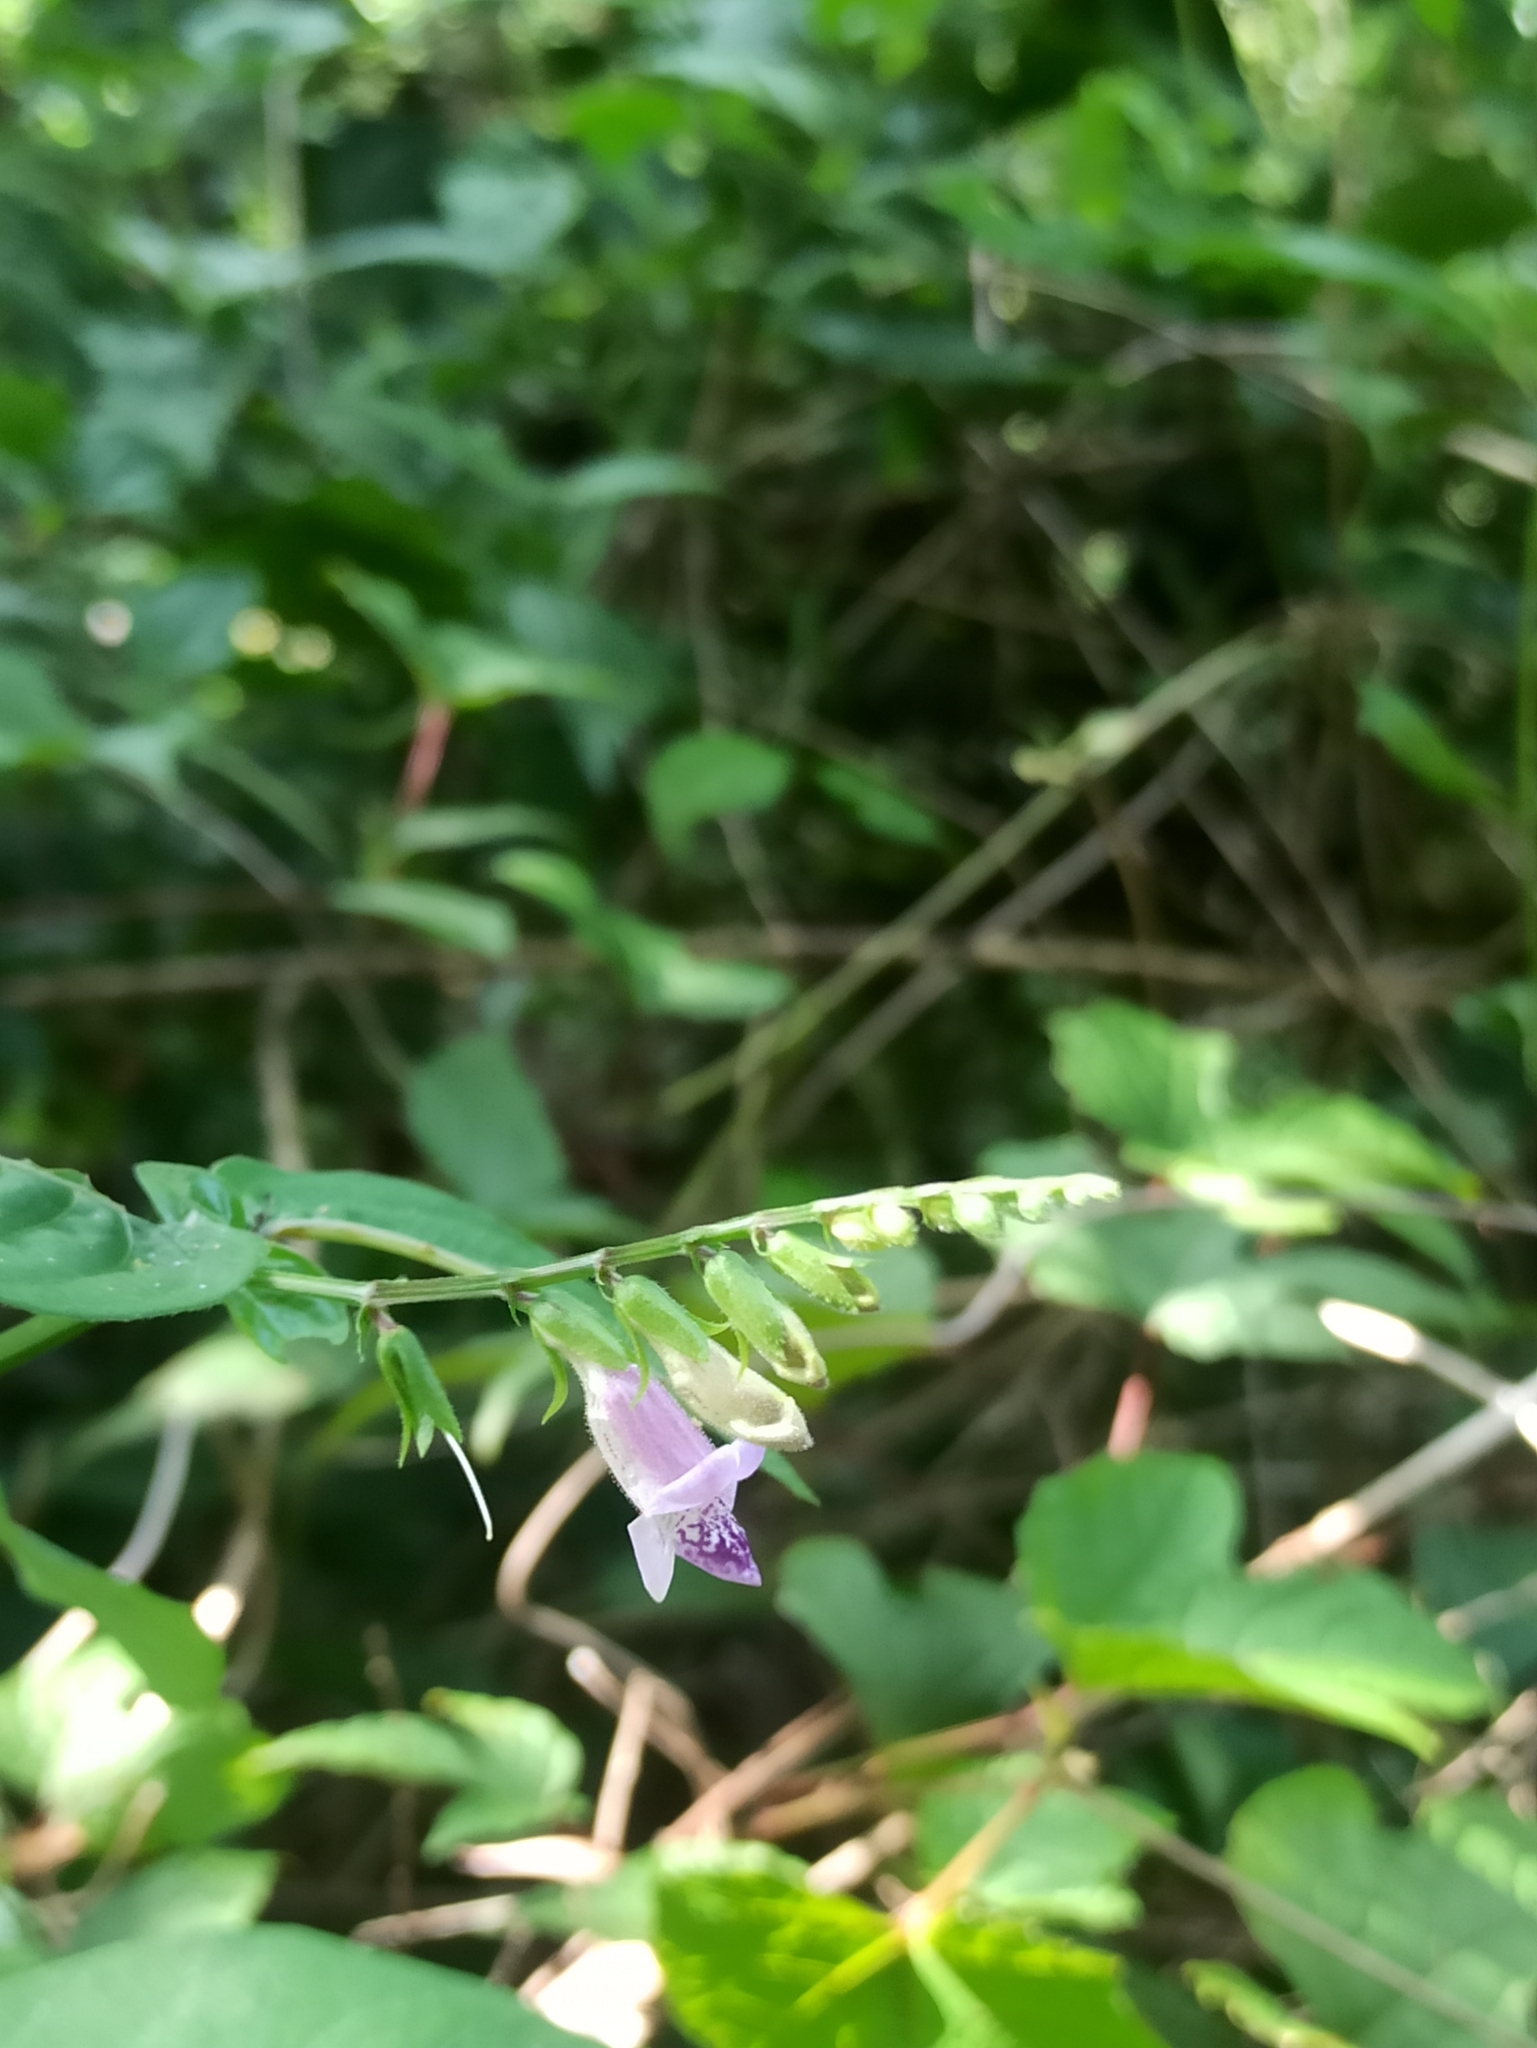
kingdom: Plantae
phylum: Tracheophyta
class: Magnoliopsida
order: Lamiales
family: Acanthaceae
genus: Asystasia
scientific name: Asystasia dalzelliana
